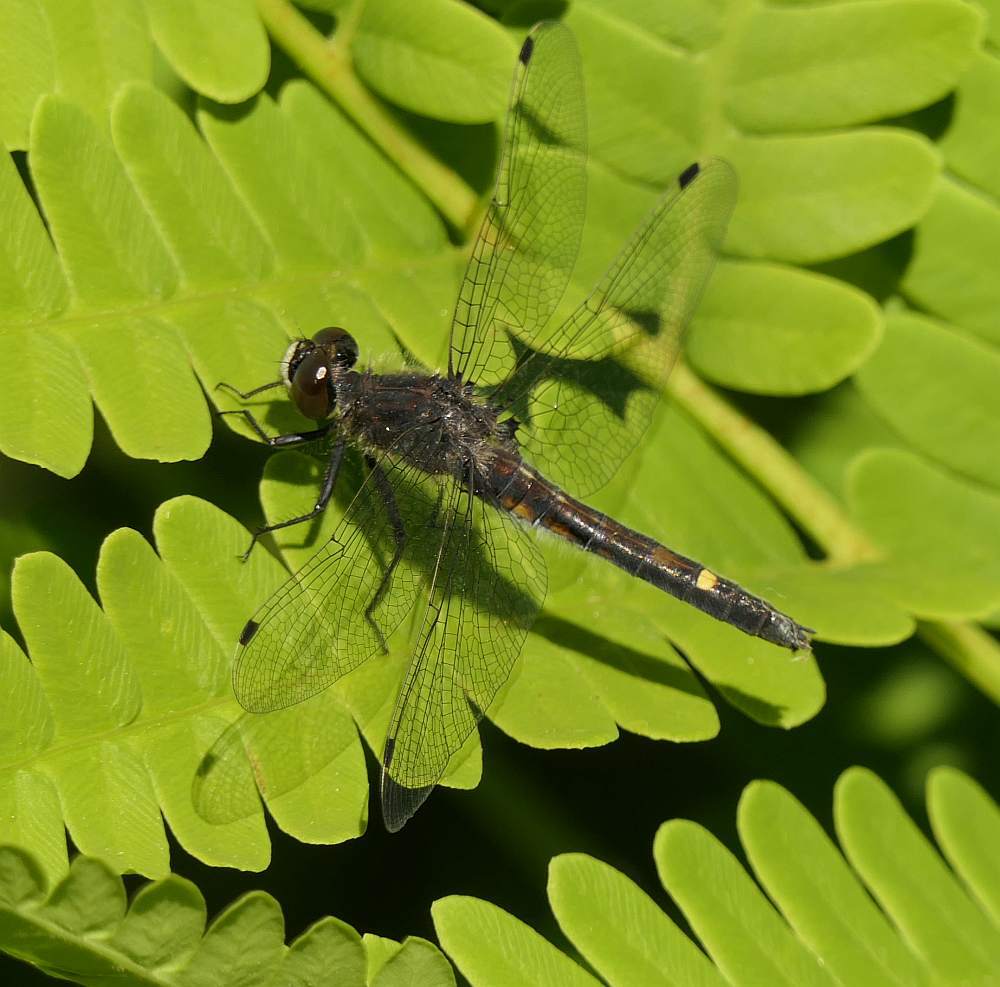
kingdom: Animalia
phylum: Arthropoda
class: Insecta
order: Odonata
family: Libellulidae
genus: Leucorrhinia
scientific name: Leucorrhinia intacta
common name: Dot-tailed whiteface
